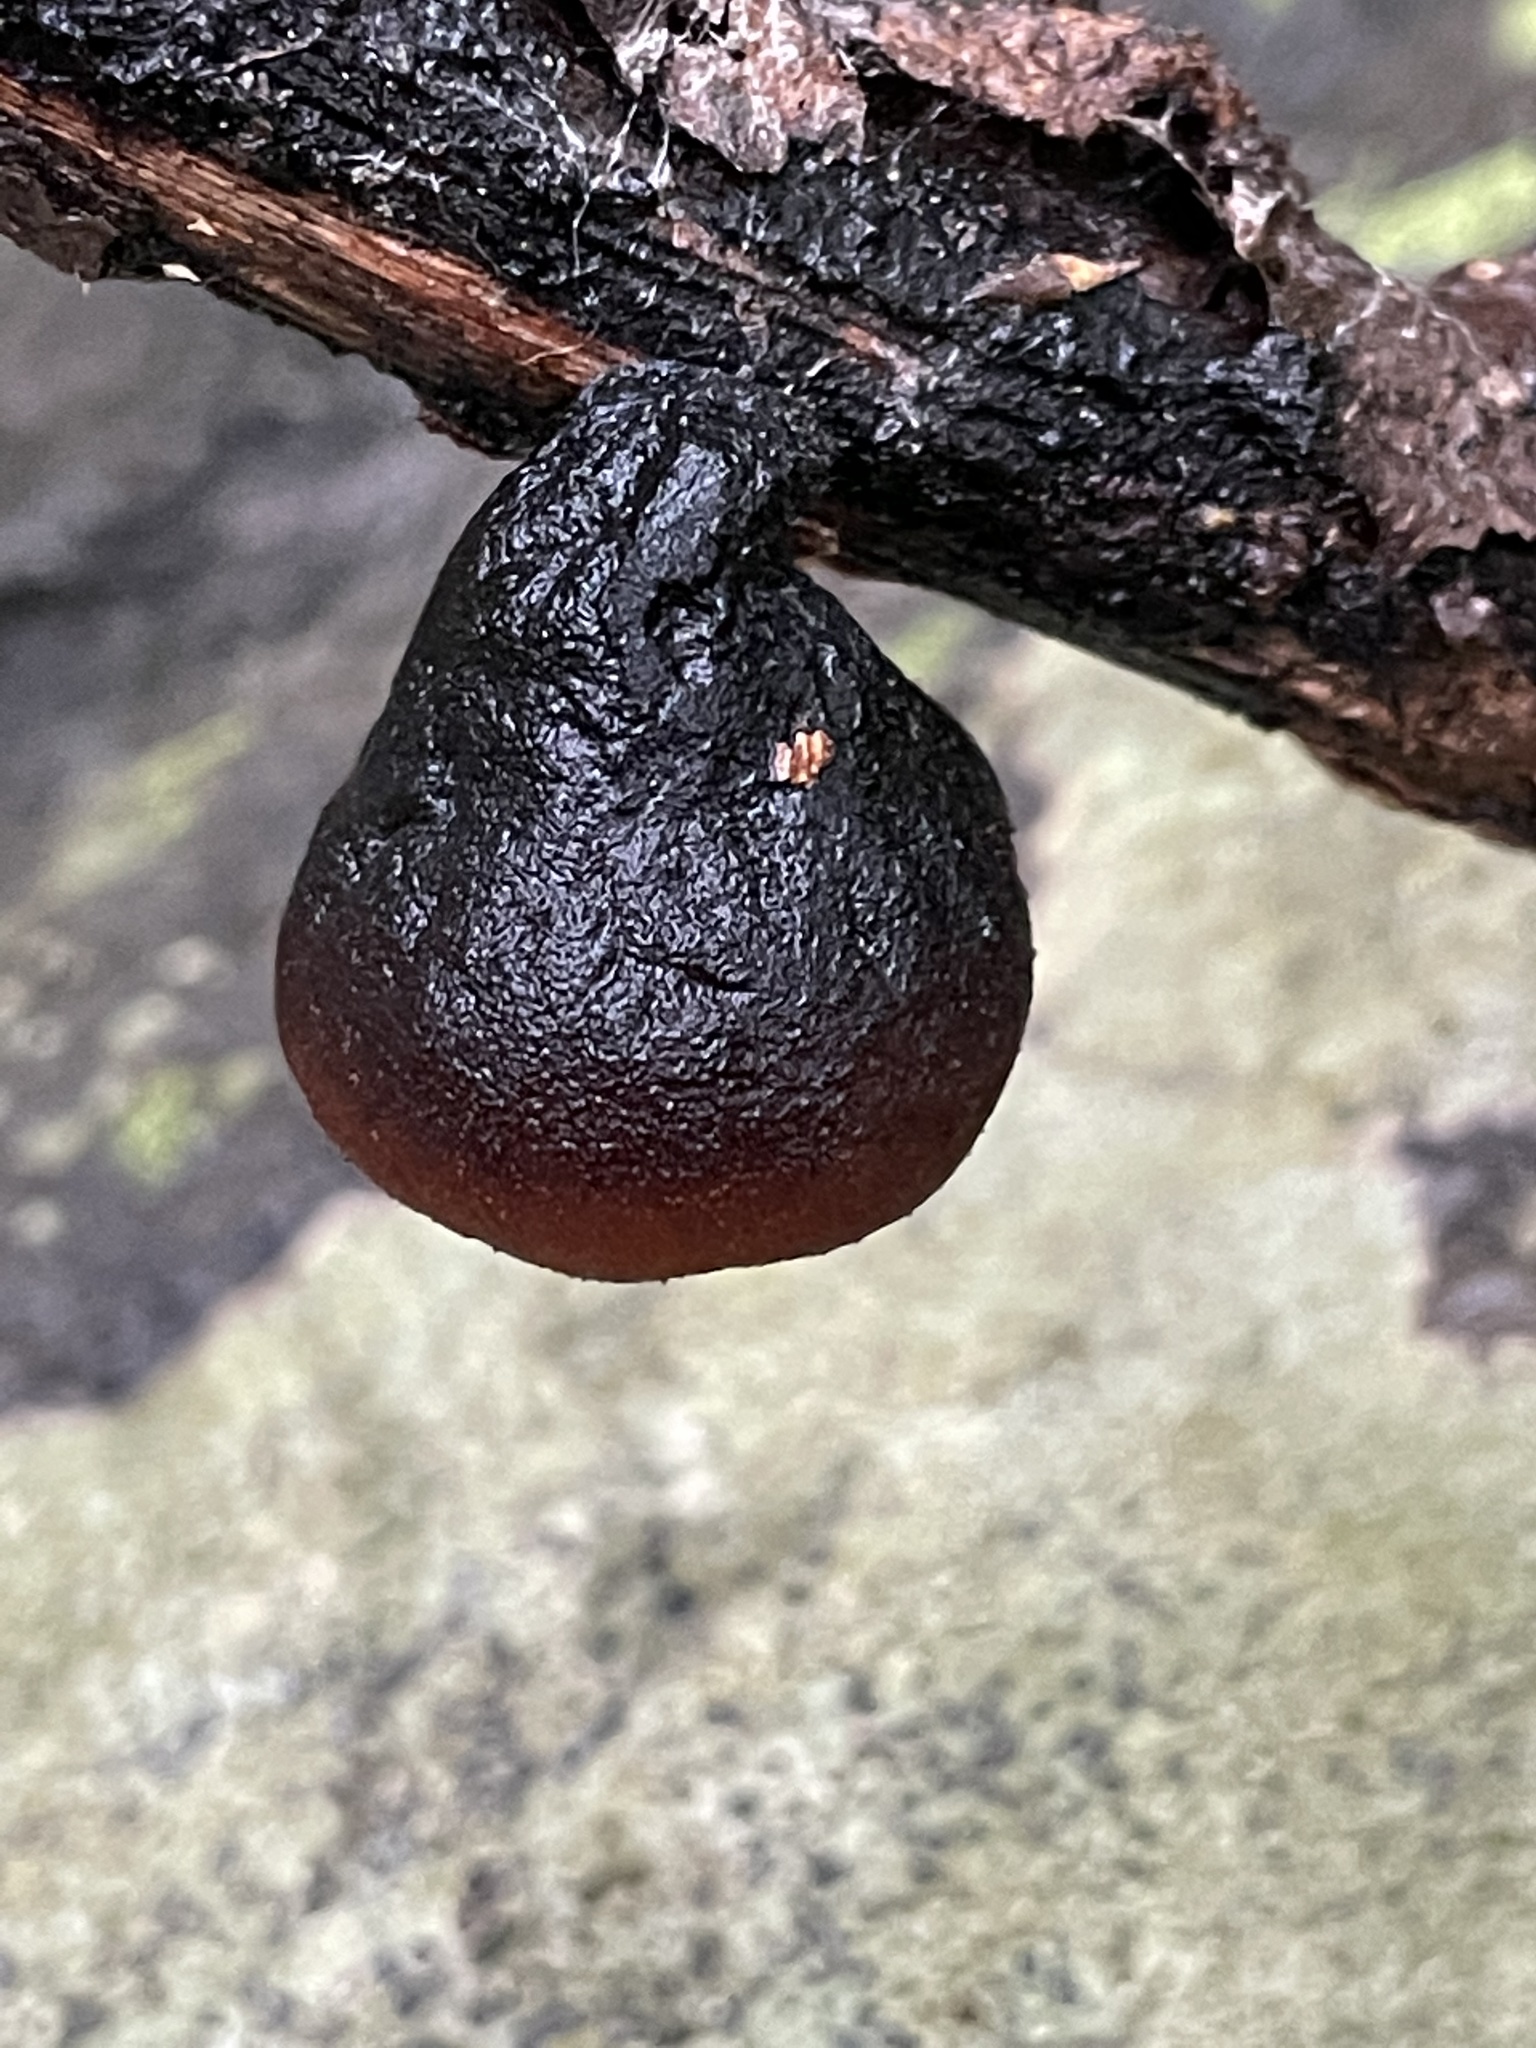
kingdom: Fungi
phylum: Ascomycota
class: Pezizomycetes
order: Pezizales
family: Sarcosomataceae
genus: Galiella
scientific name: Galiella rufa
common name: Hairy rubber cup
